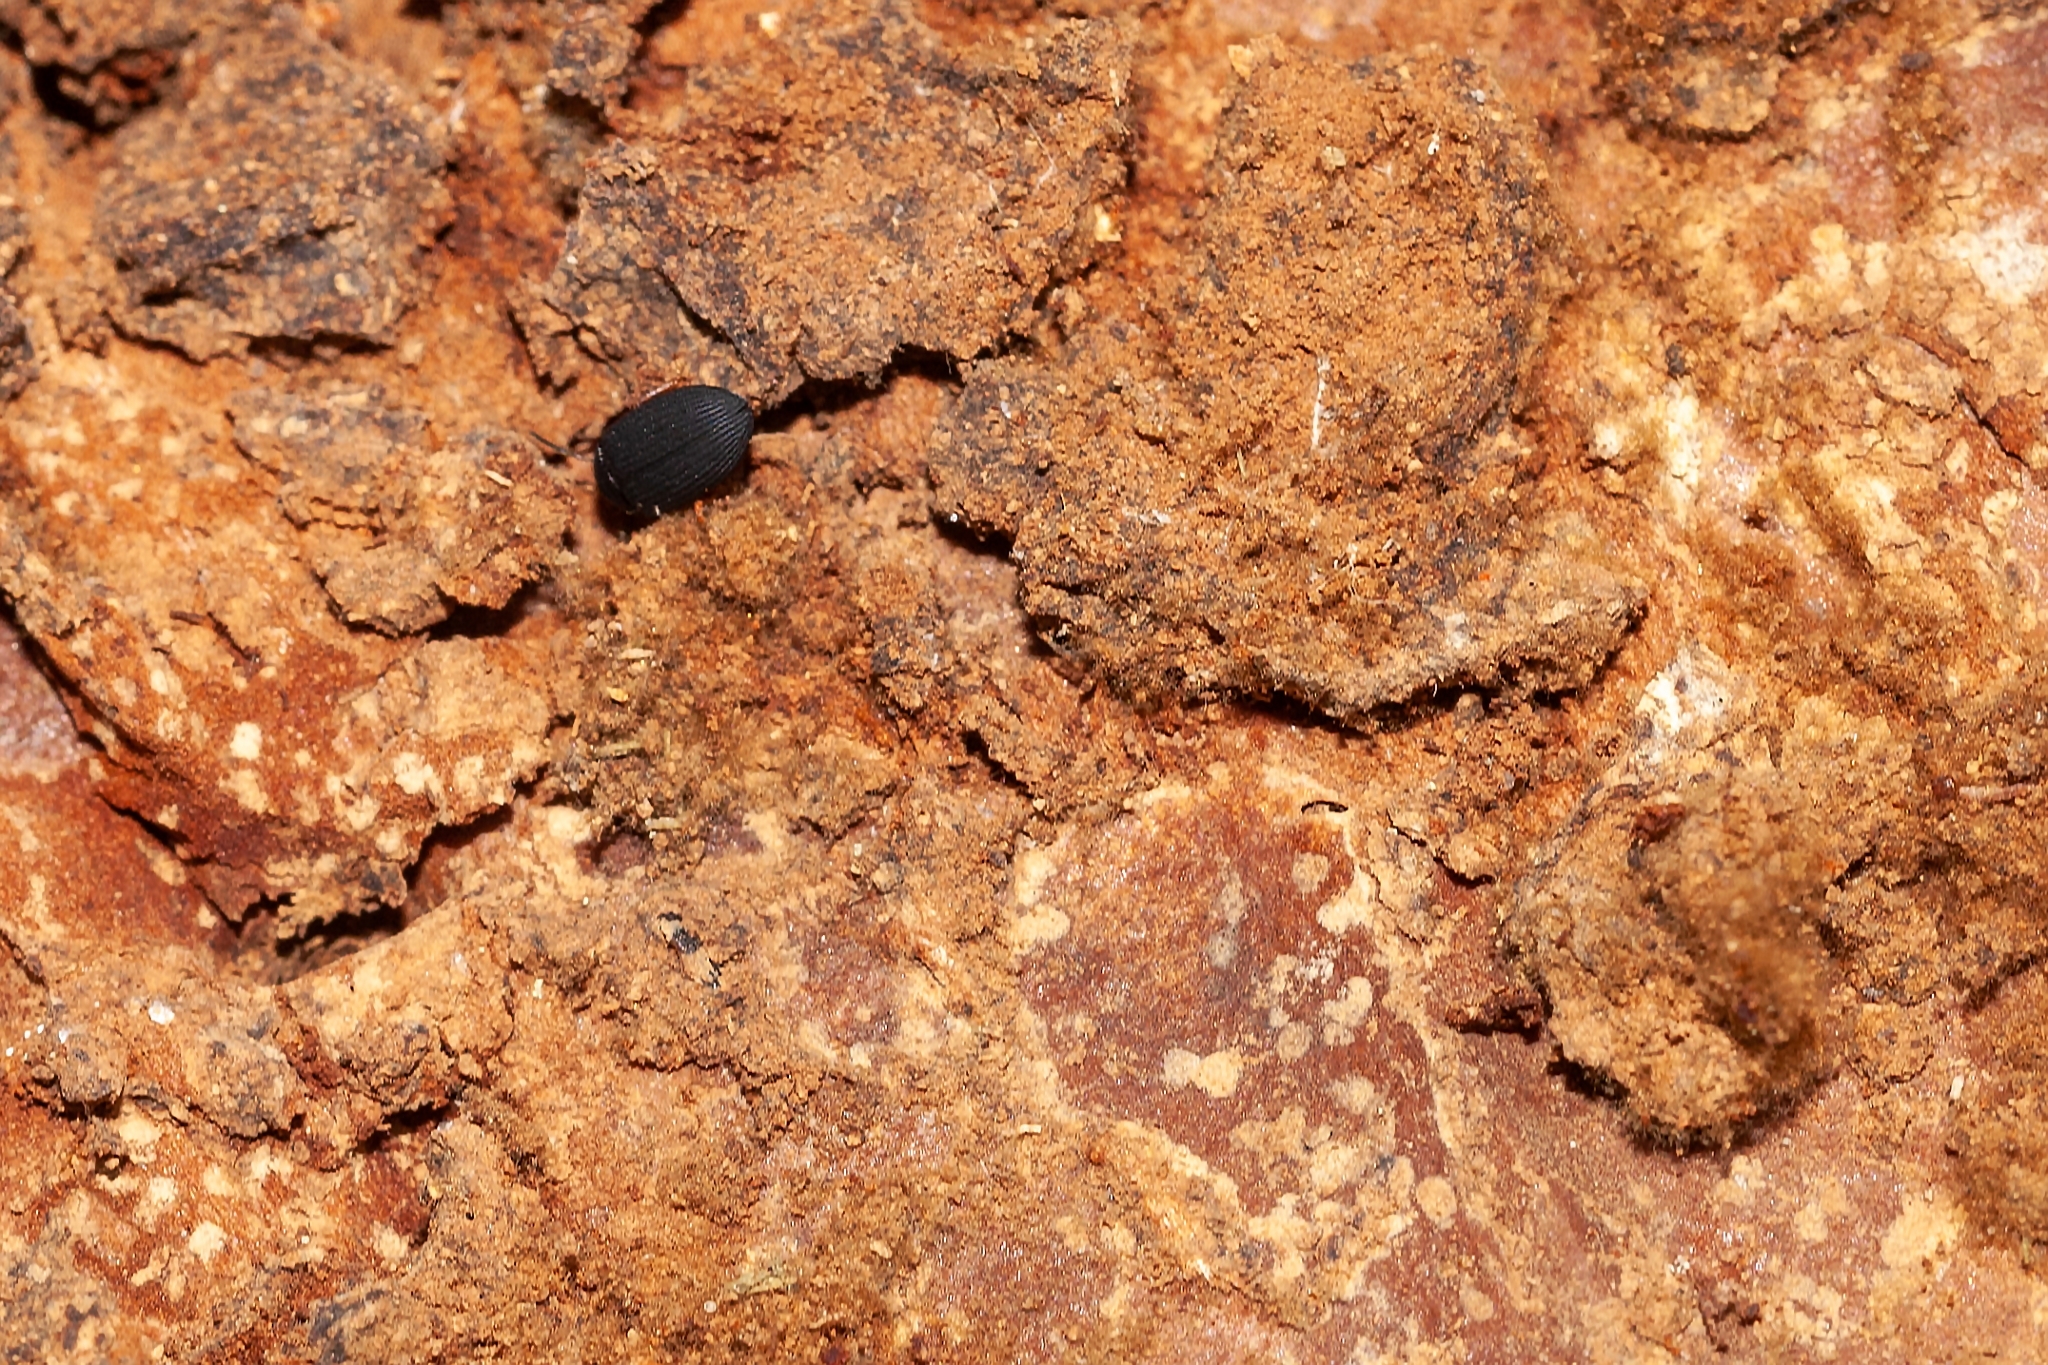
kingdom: Animalia
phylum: Arthropoda
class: Insecta
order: Coleoptera
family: Tenebrionidae
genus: Platydema
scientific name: Platydema flavipes
